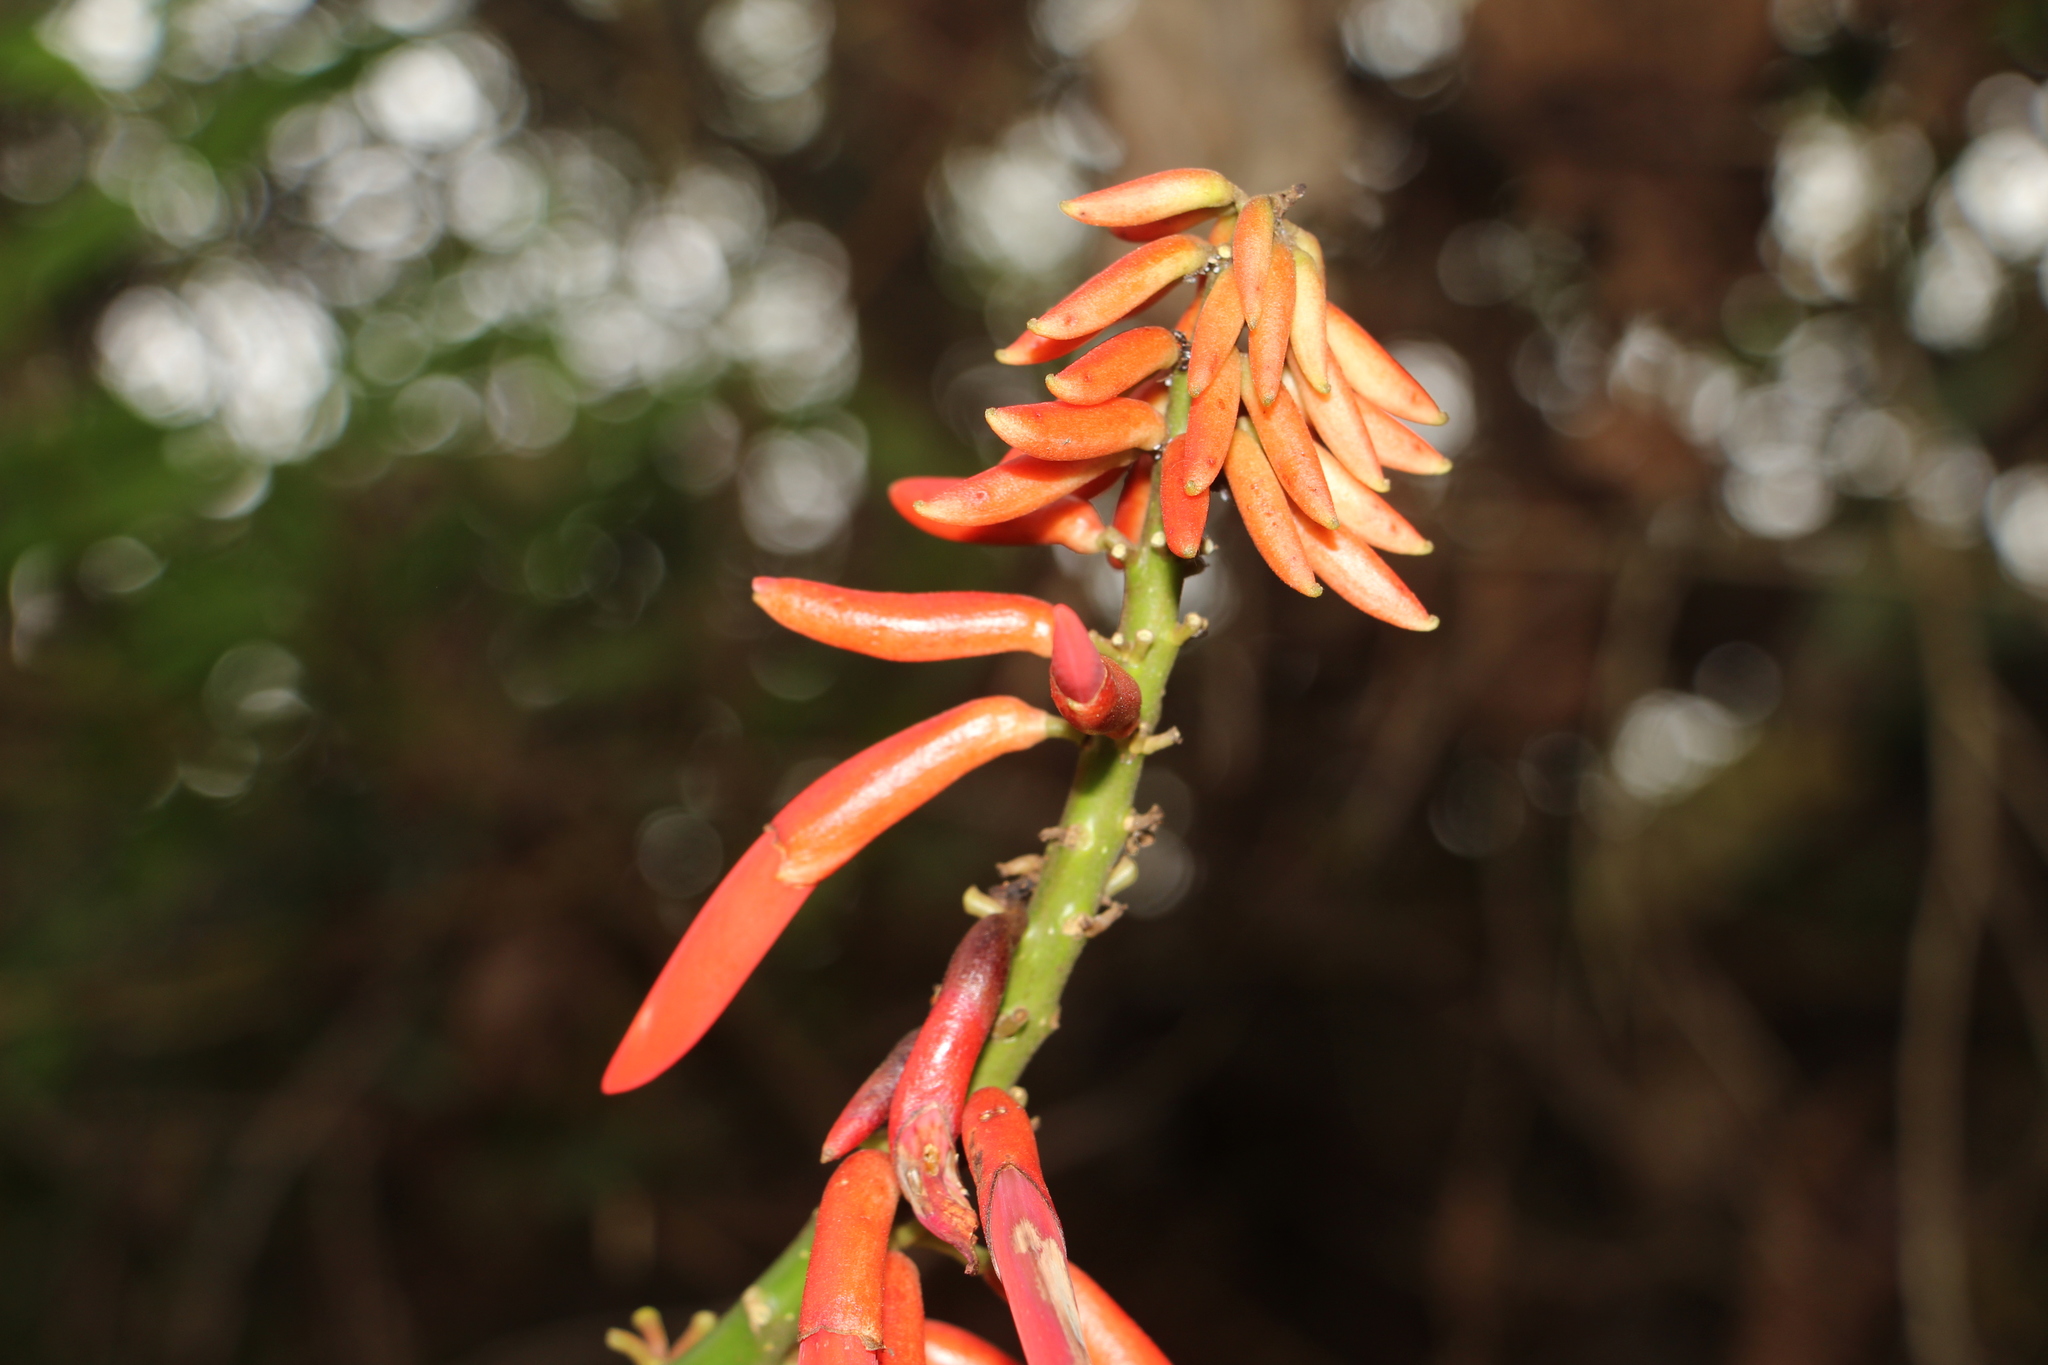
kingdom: Plantae
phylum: Tracheophyta
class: Magnoliopsida
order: Fabales
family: Fabaceae
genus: Erythrina
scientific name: Erythrina rubrinervia
